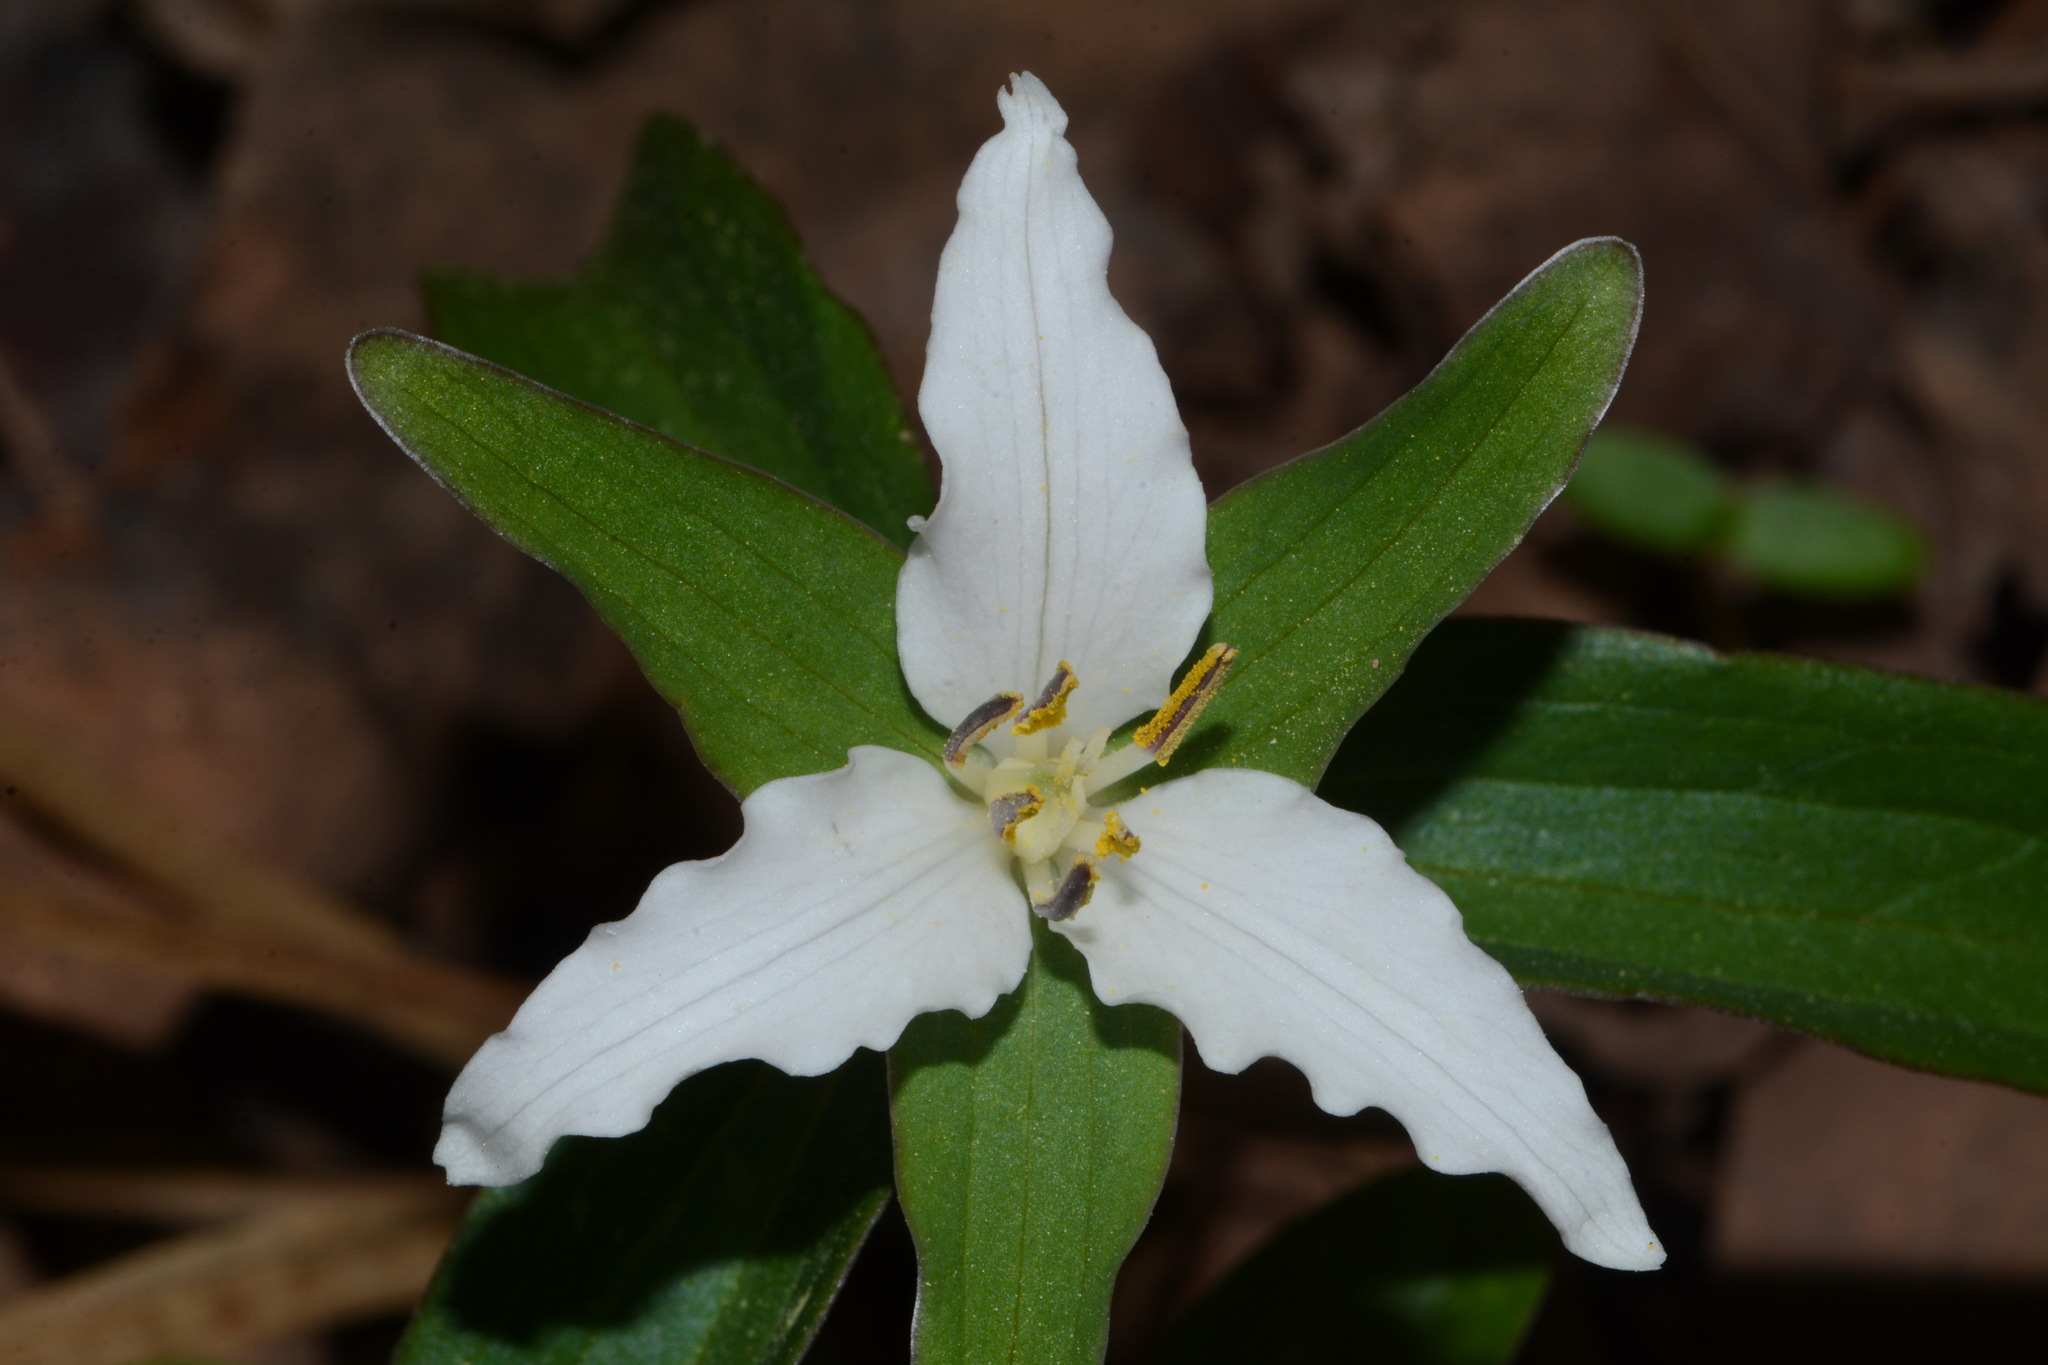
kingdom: Plantae
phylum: Tracheophyta
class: Liliopsida
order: Liliales
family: Melanthiaceae
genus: Trillium
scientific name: Trillium pusillum
